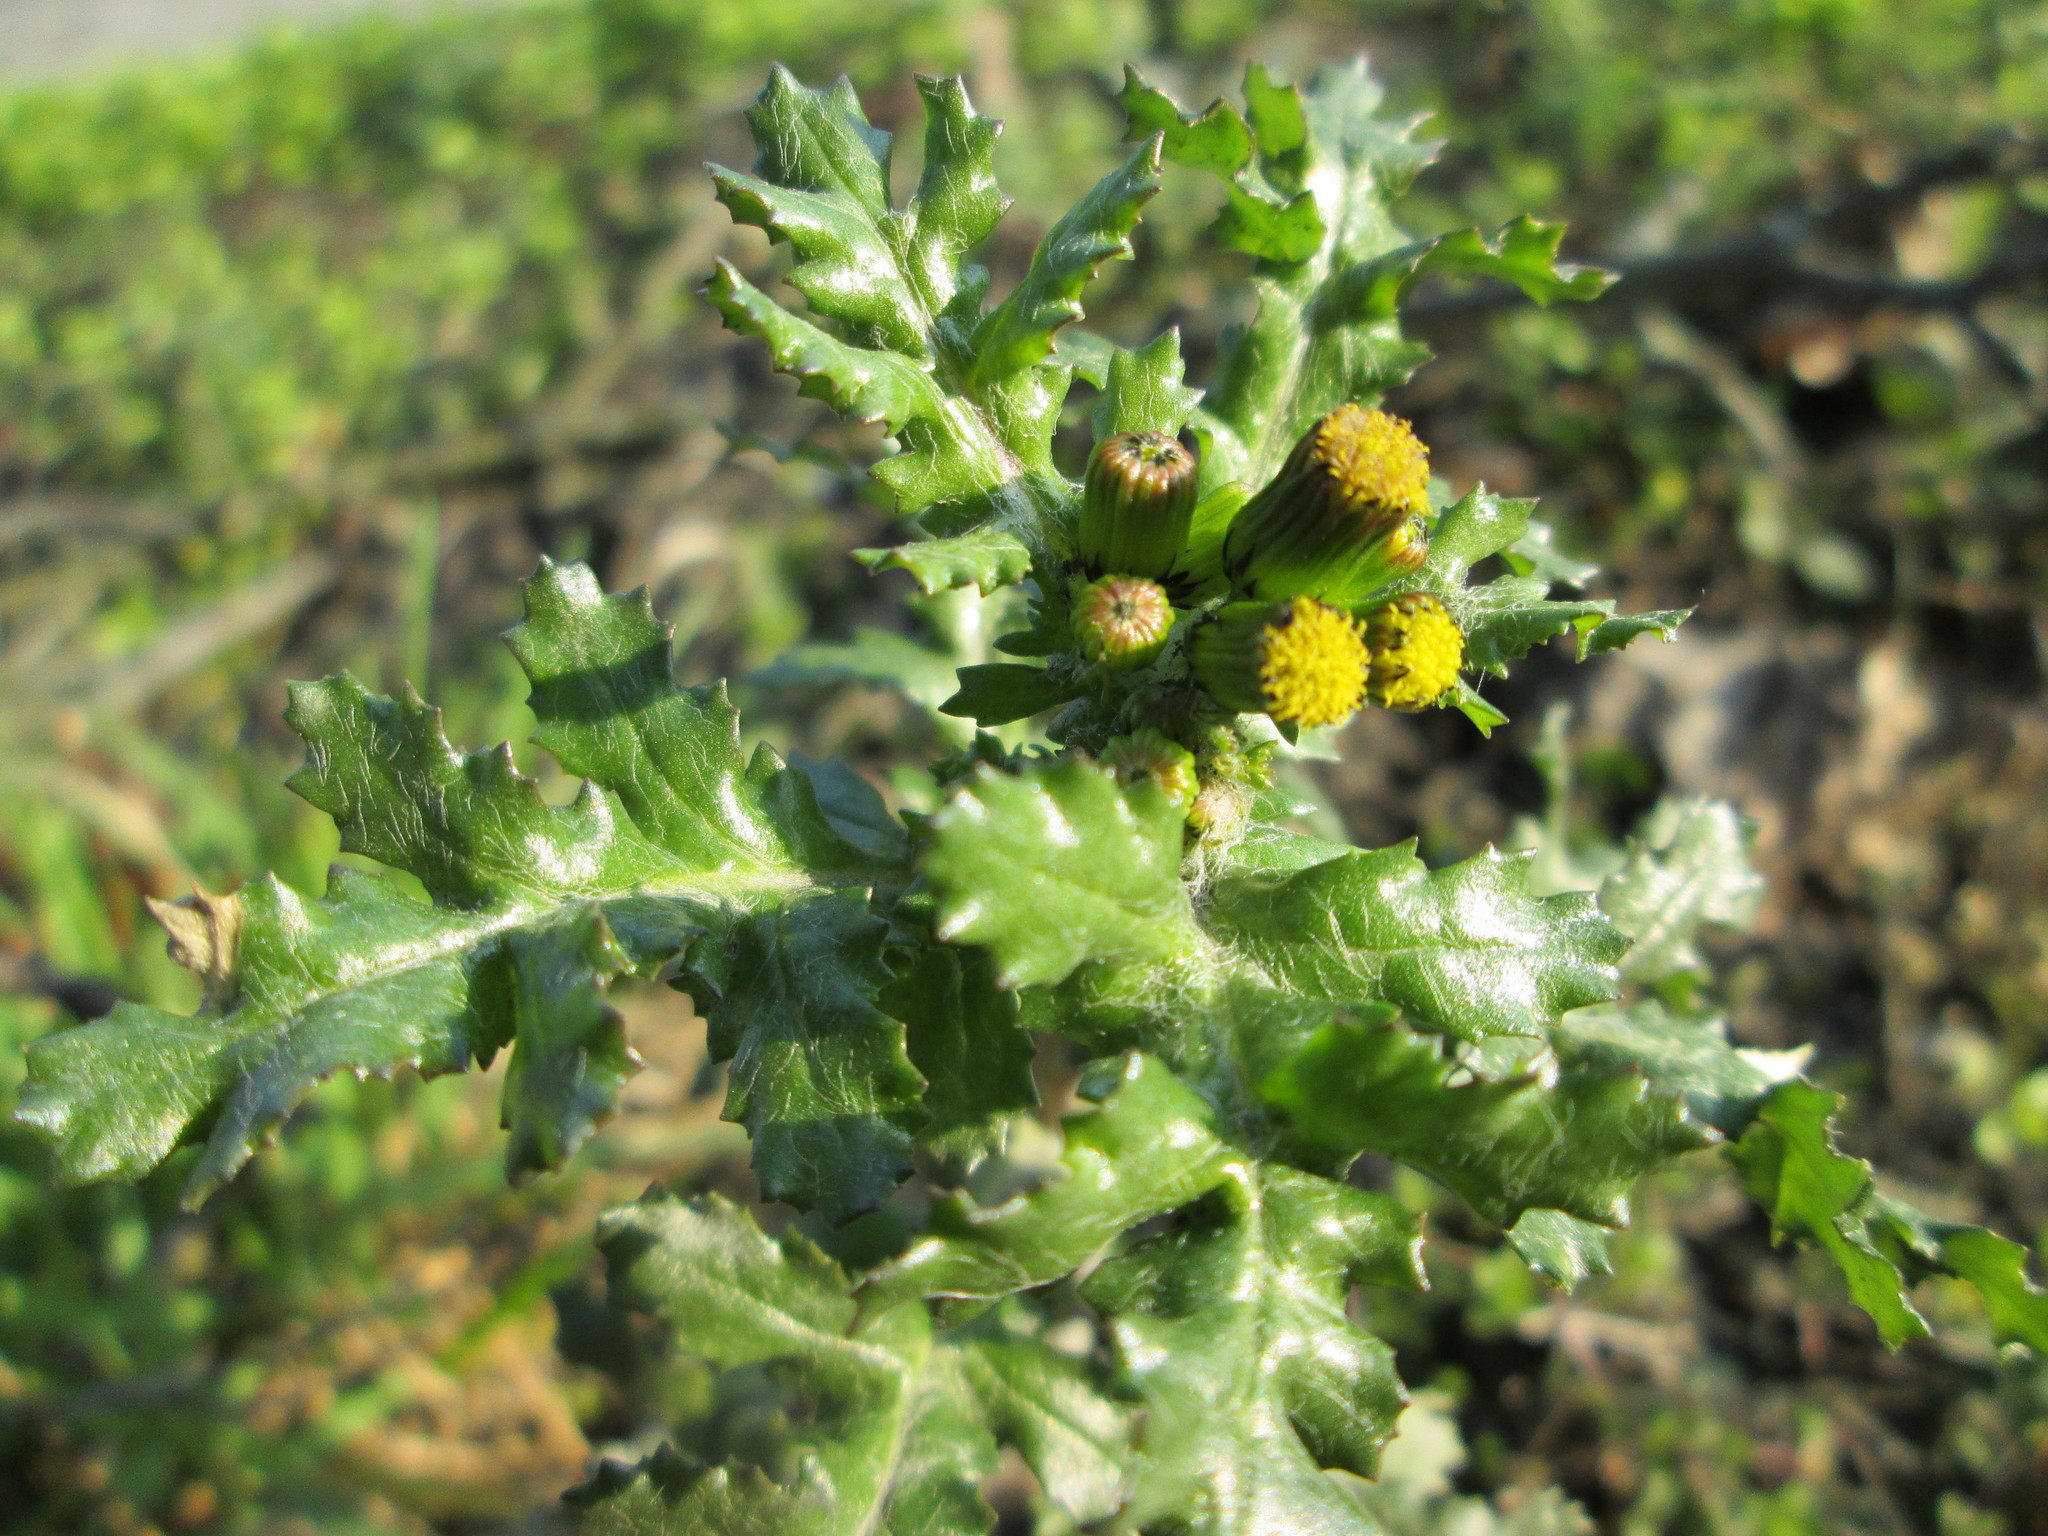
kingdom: Plantae
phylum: Tracheophyta
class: Magnoliopsida
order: Asterales
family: Asteraceae
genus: Senecio
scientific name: Senecio vulgaris
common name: Old-man-in-the-spring
